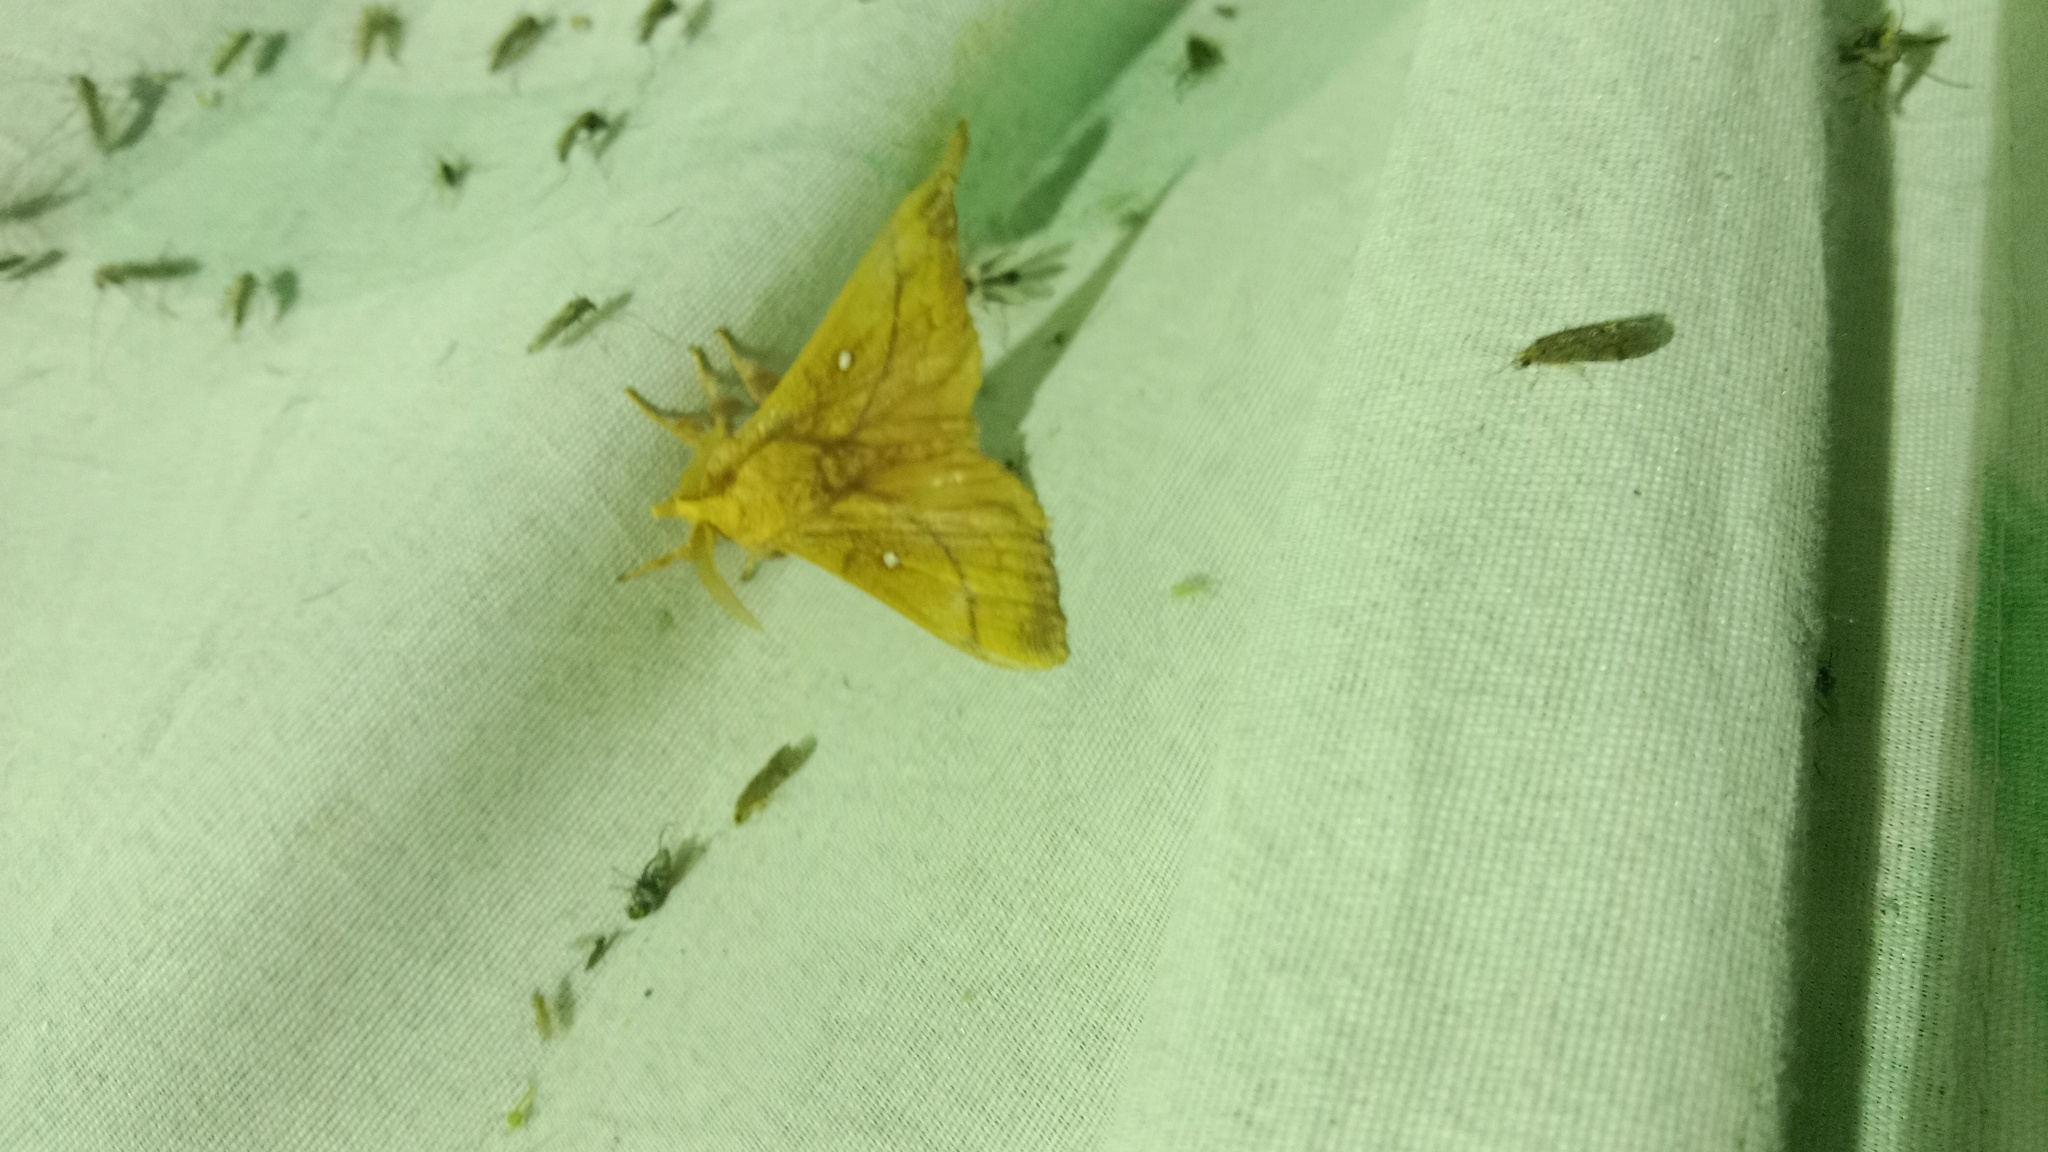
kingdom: Animalia
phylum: Arthropoda
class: Insecta
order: Lepidoptera
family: Lasiocampidae
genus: Odonestis
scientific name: Odonestis pruni
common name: Plum lappet
